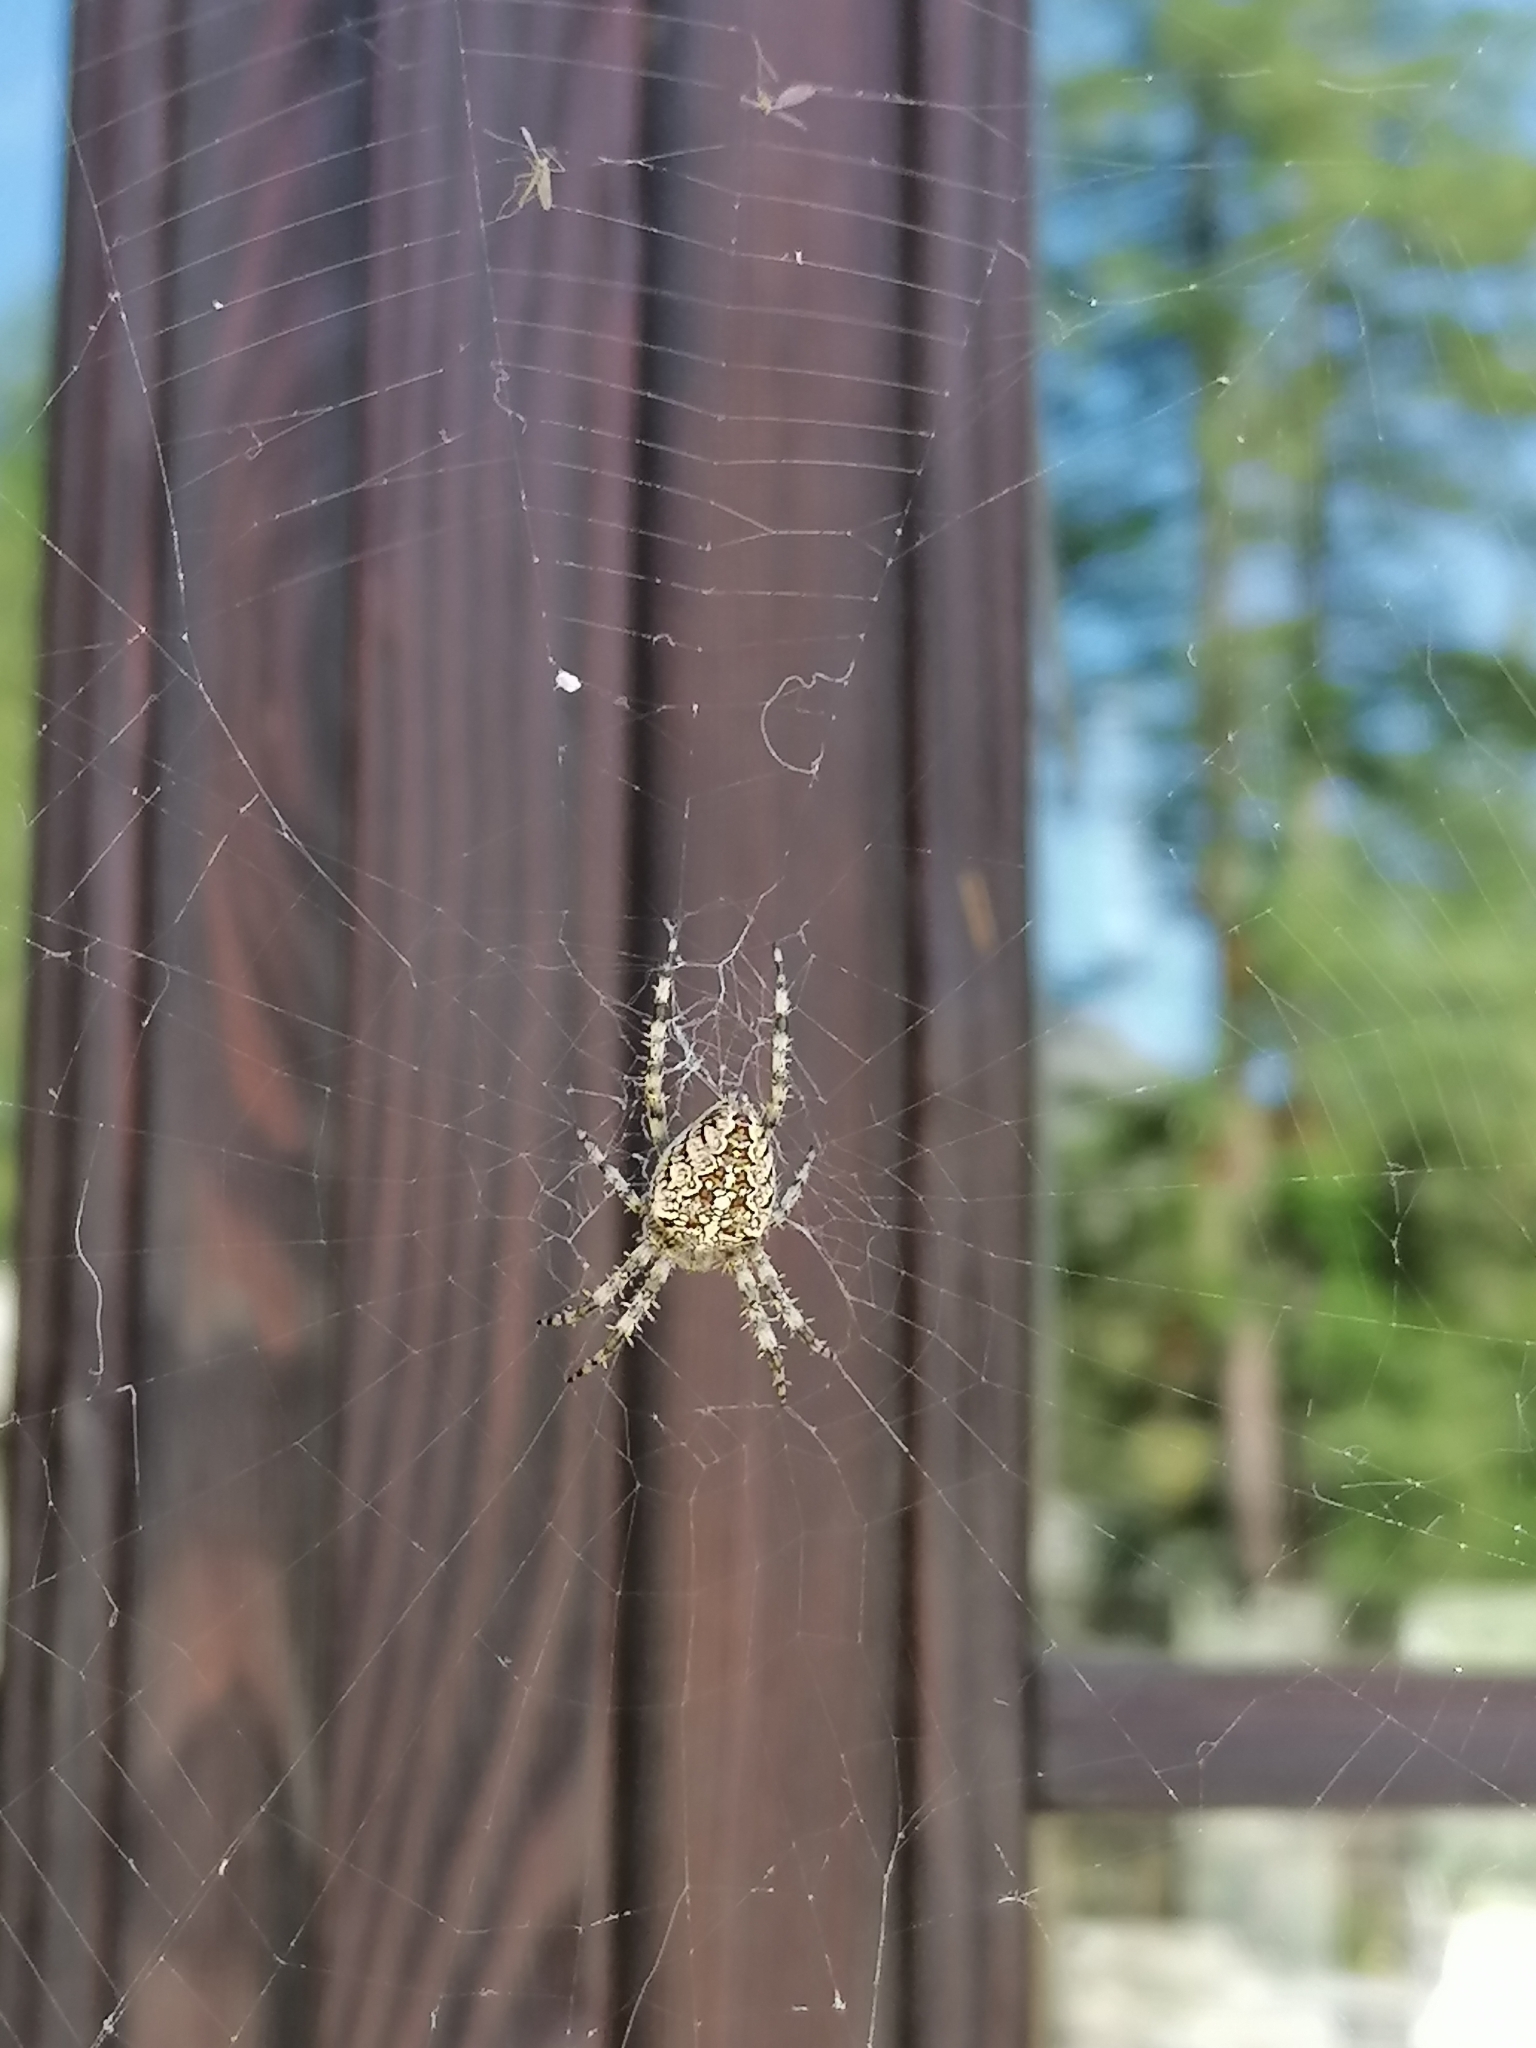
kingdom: Animalia
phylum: Arthropoda
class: Arachnida
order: Araneae
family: Araneidae
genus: Araneus
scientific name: Araneus diadematus
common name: Cross orbweaver
